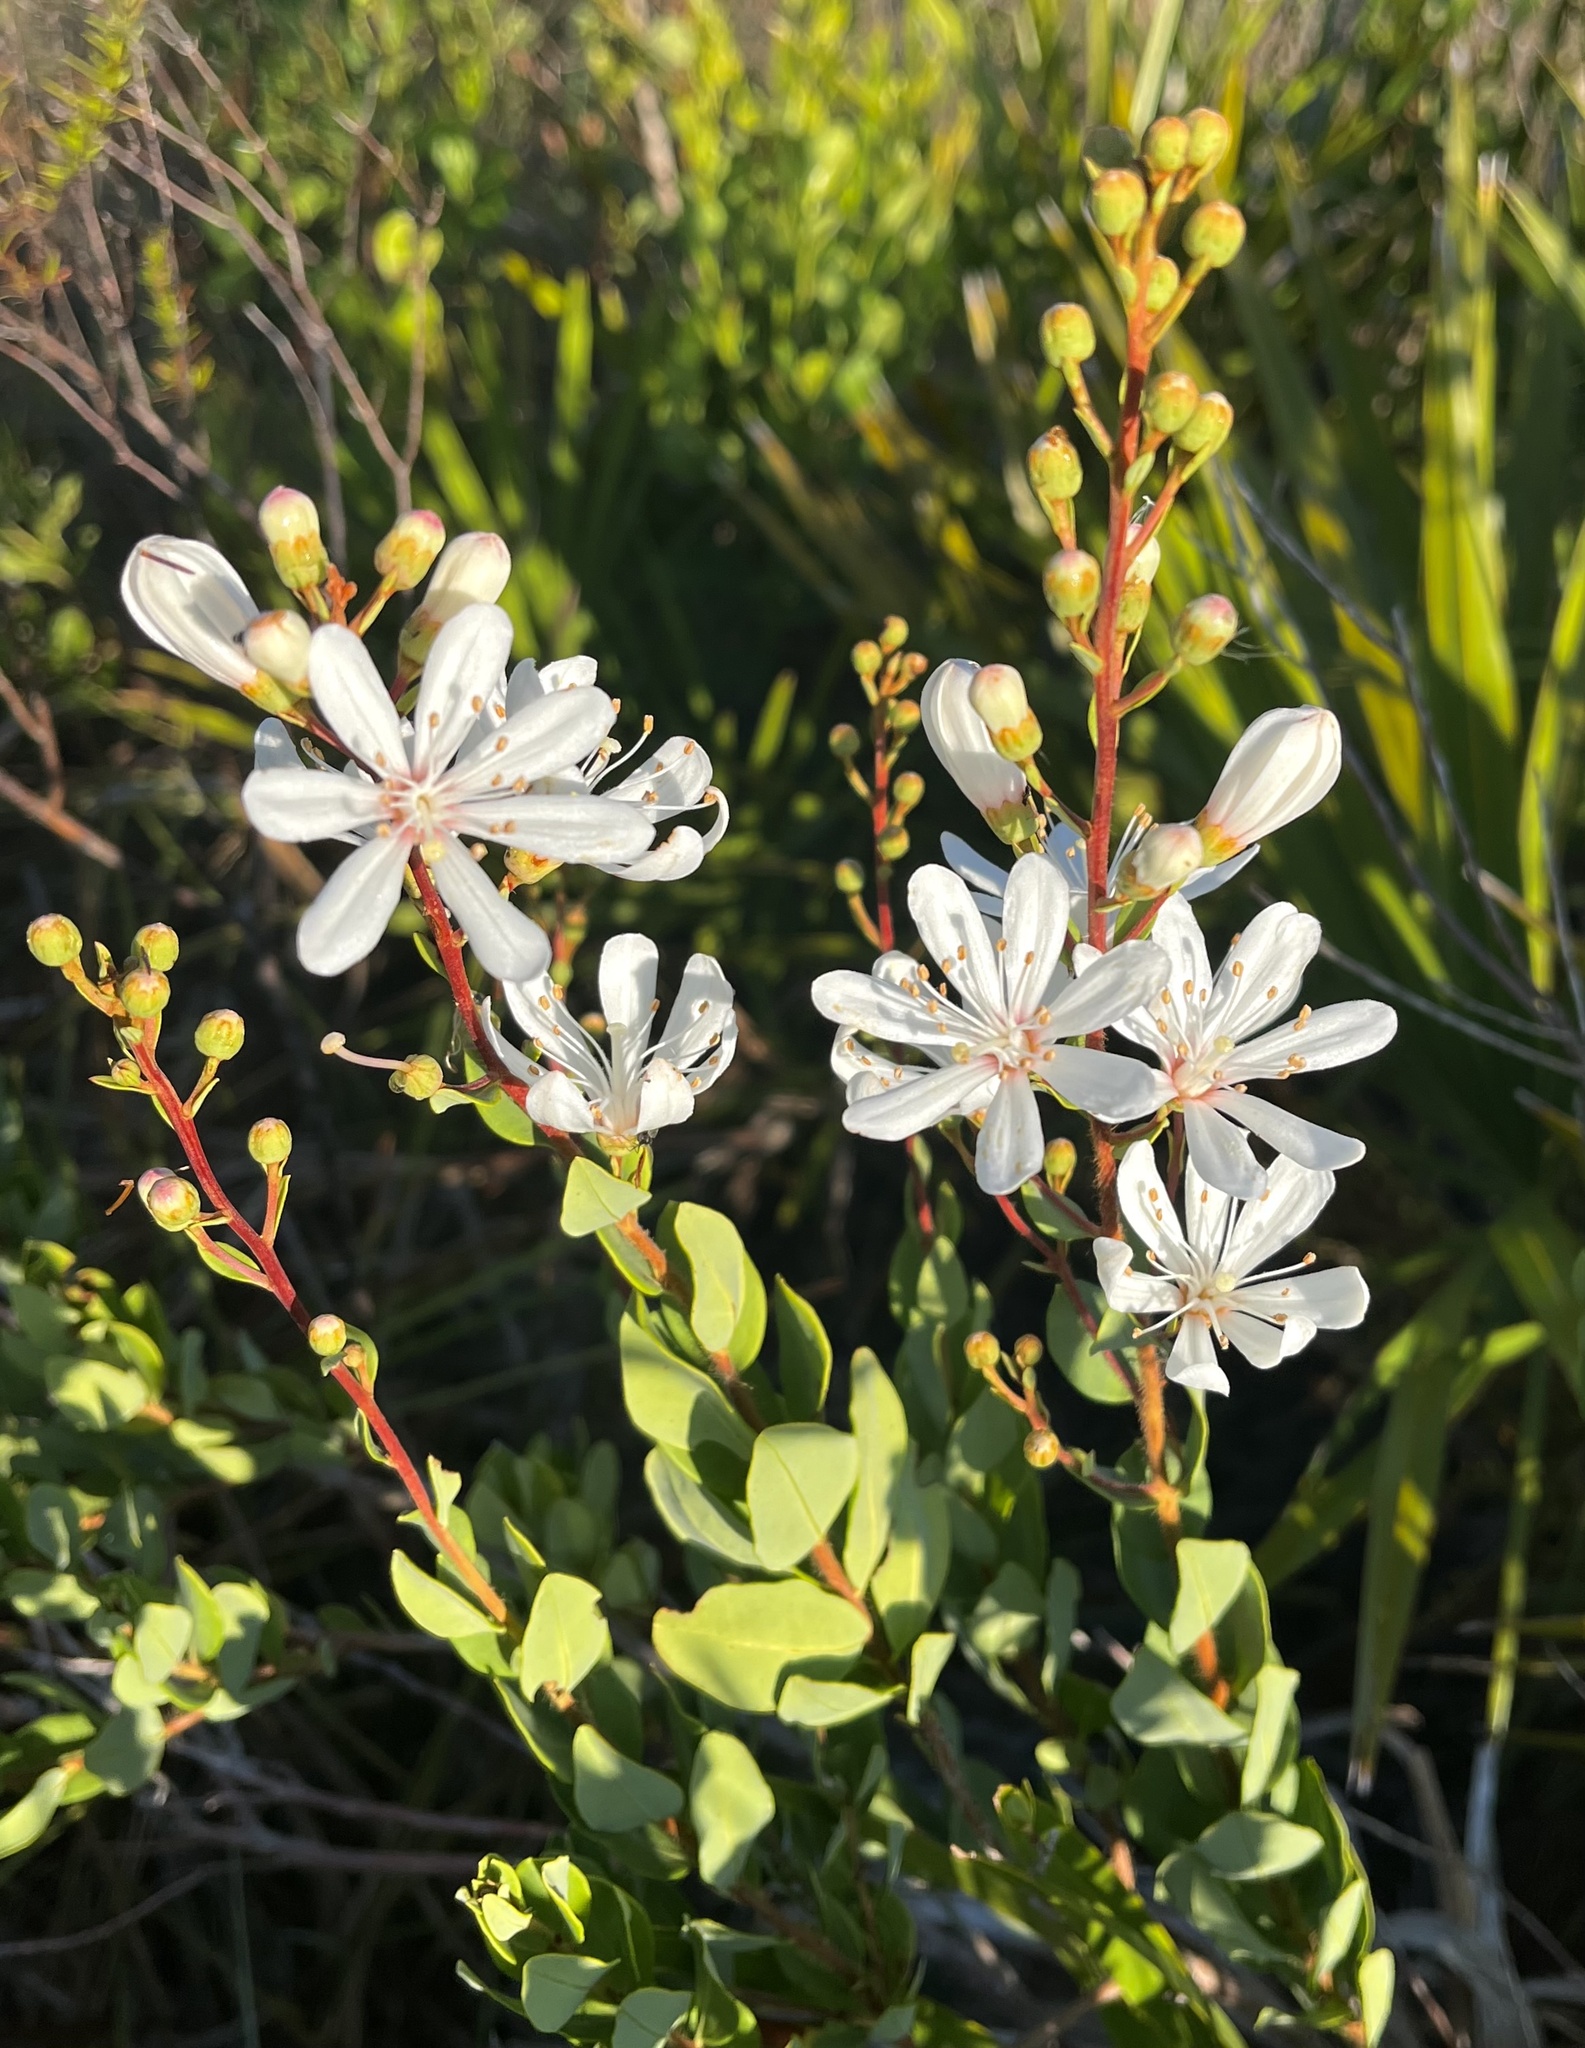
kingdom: Plantae
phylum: Tracheophyta
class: Magnoliopsida
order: Ericales
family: Ericaceae
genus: Bejaria
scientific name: Bejaria racemosa
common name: Tarflower
